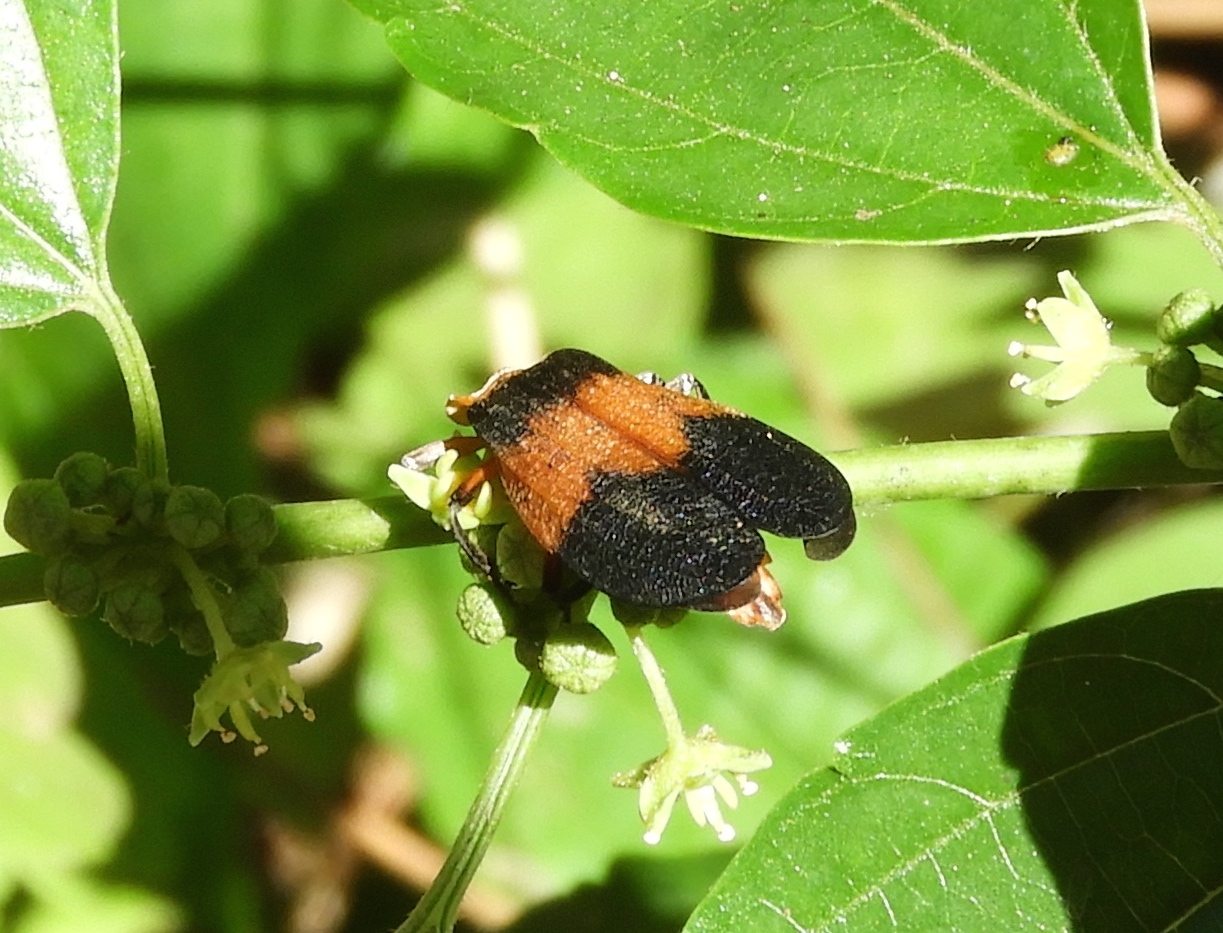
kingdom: Animalia
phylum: Arthropoda
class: Insecta
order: Coleoptera
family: Lycidae
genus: Lycus
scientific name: Lycus
